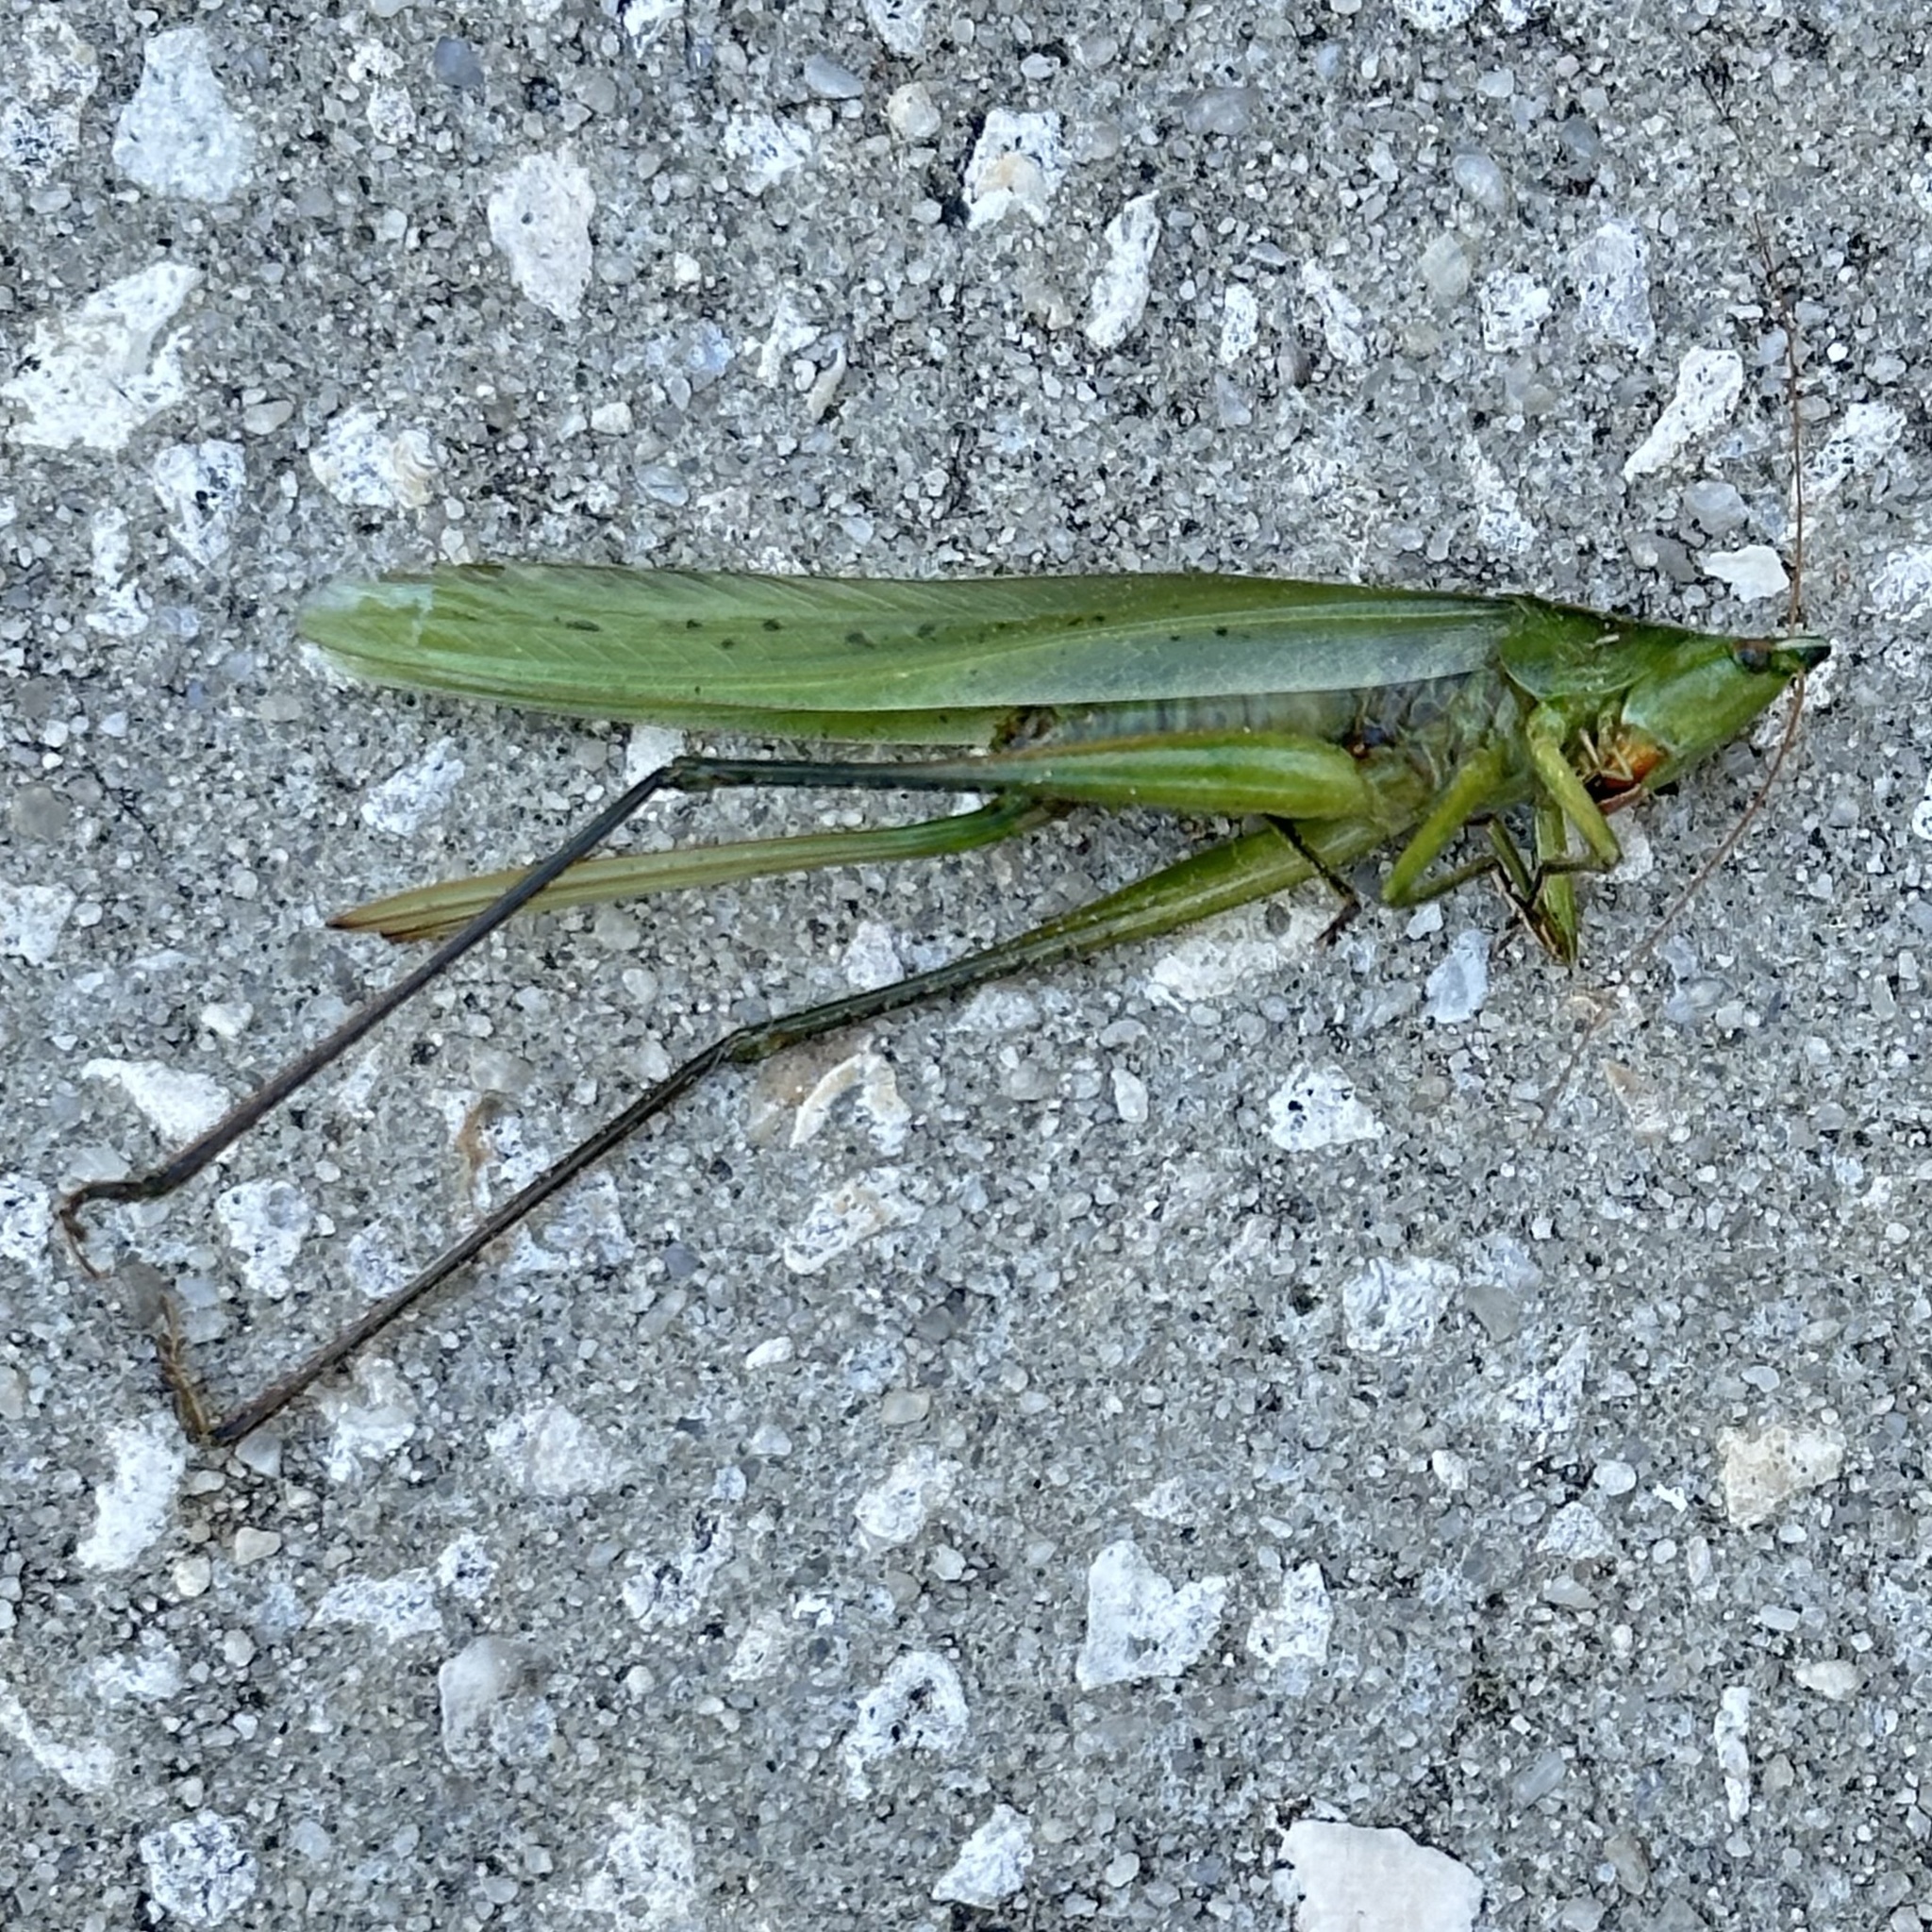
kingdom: Animalia
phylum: Arthropoda
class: Insecta
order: Orthoptera
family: Tettigoniidae
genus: Neoconocephalus
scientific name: Neoconocephalus triops
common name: Broad-tipped conehead
